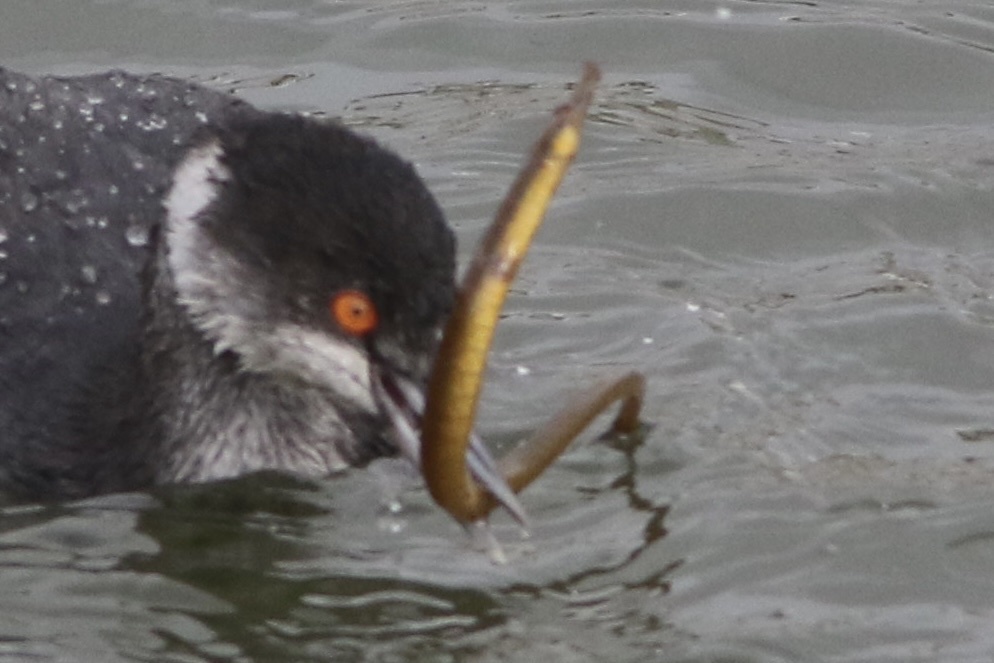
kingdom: Animalia
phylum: Chordata
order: Syngnathiformes
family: Syngnathidae
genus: Syngnathus
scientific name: Syngnathus californiensis
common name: Great pipefish
